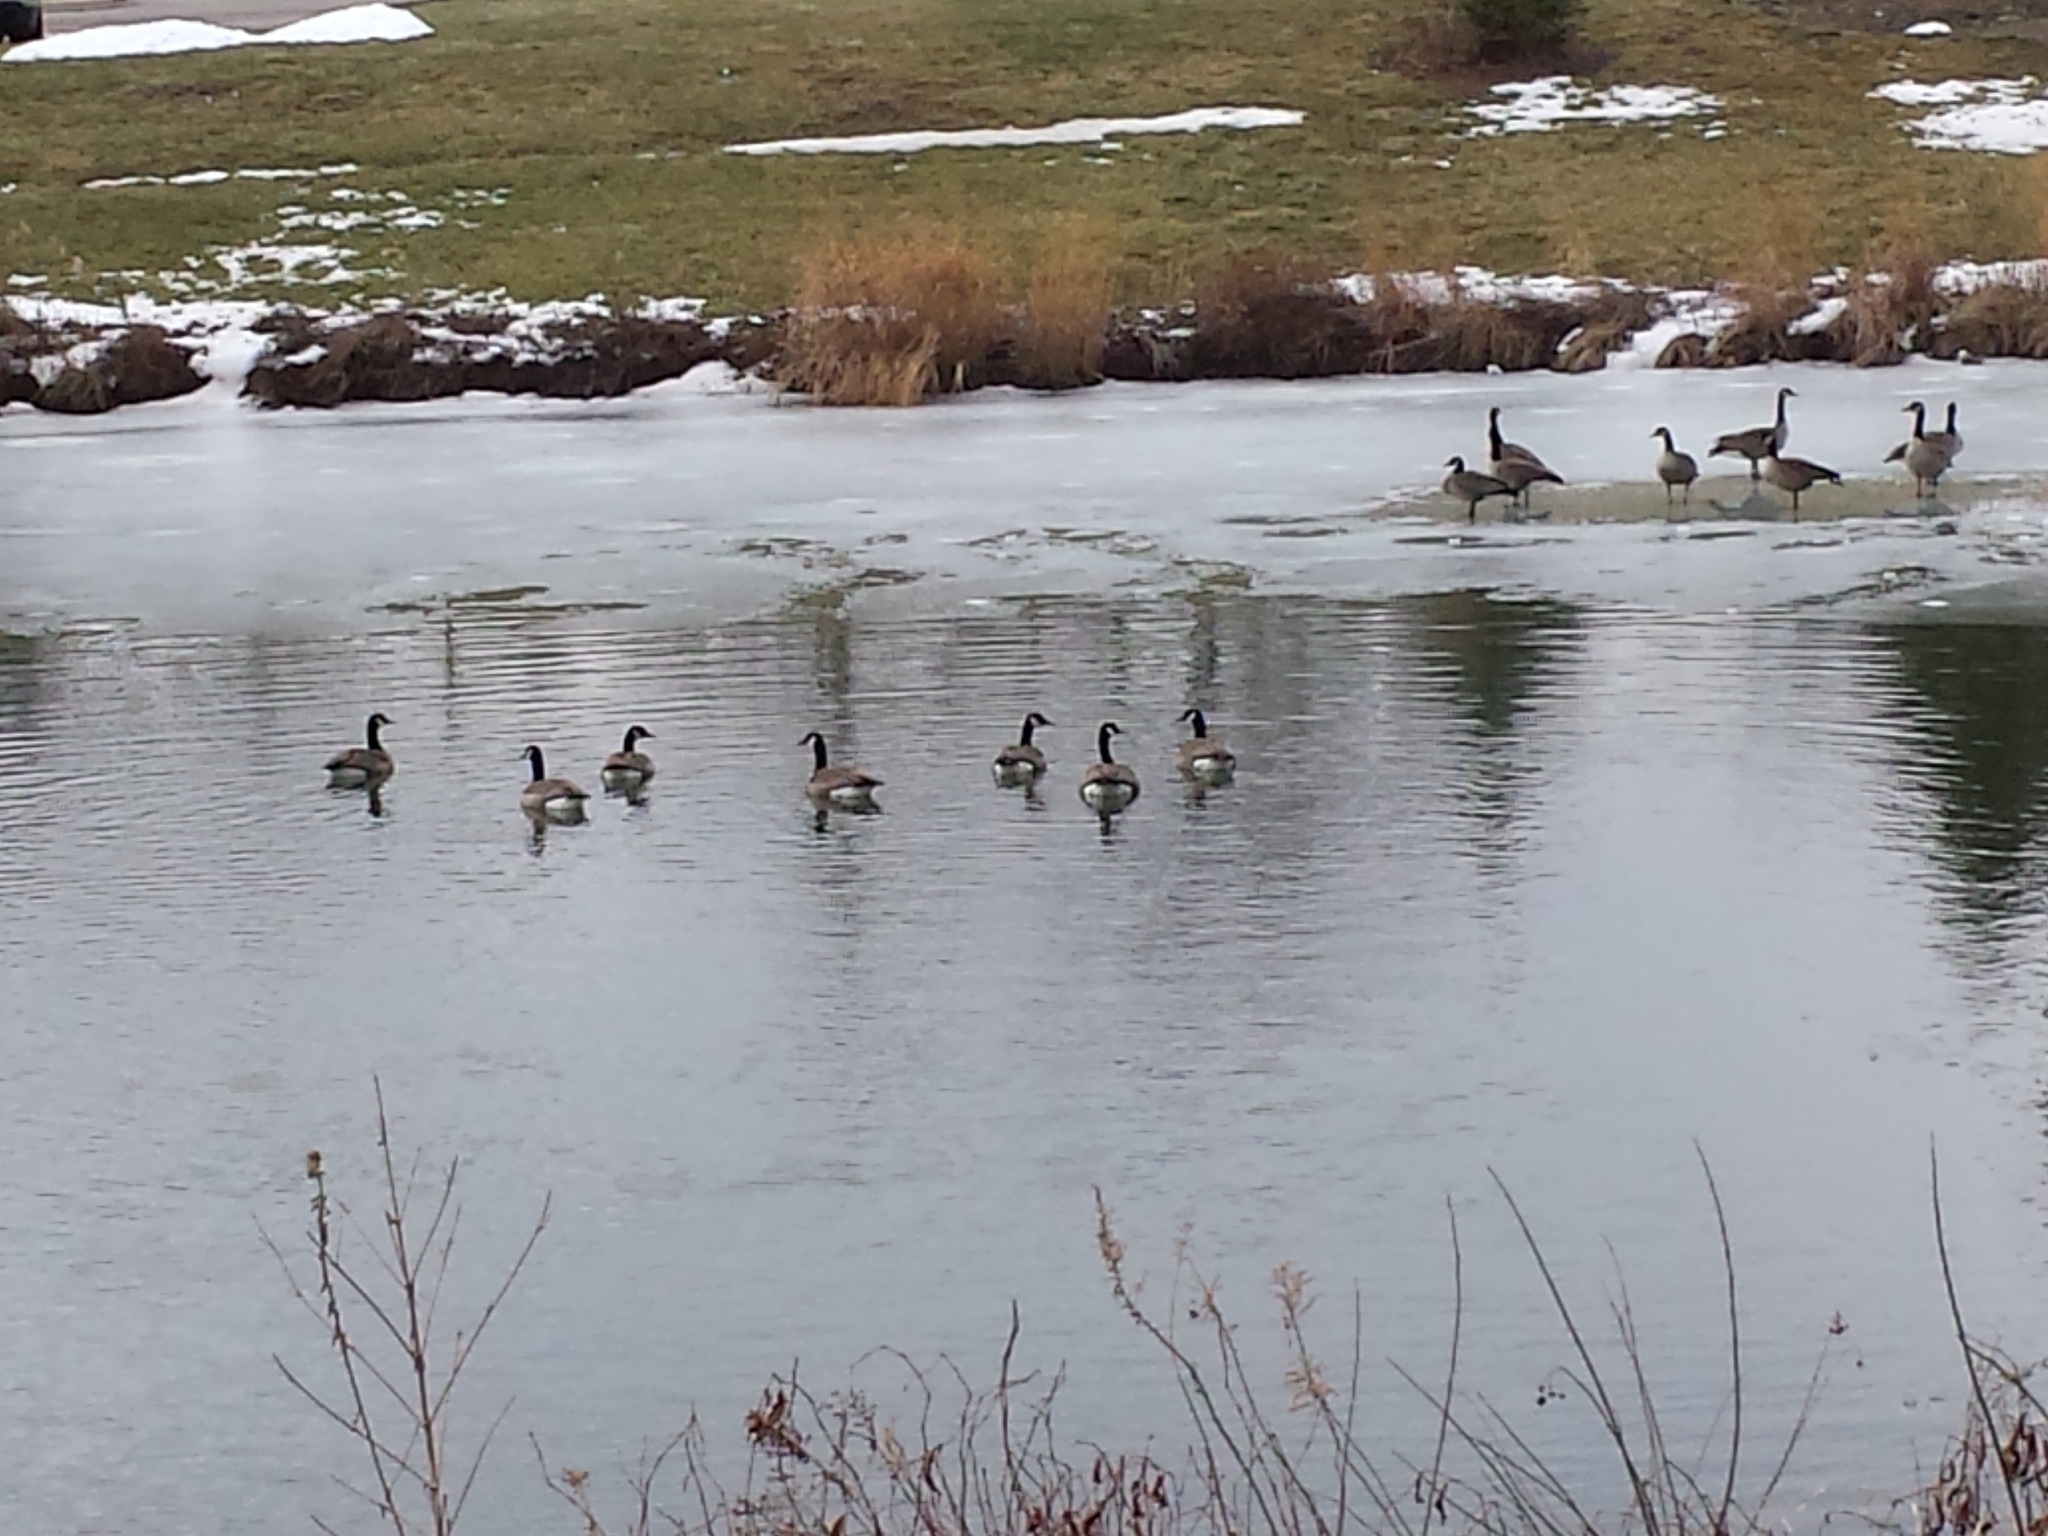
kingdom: Animalia
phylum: Chordata
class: Aves
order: Anseriformes
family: Anatidae
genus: Branta
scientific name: Branta canadensis
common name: Canada goose
